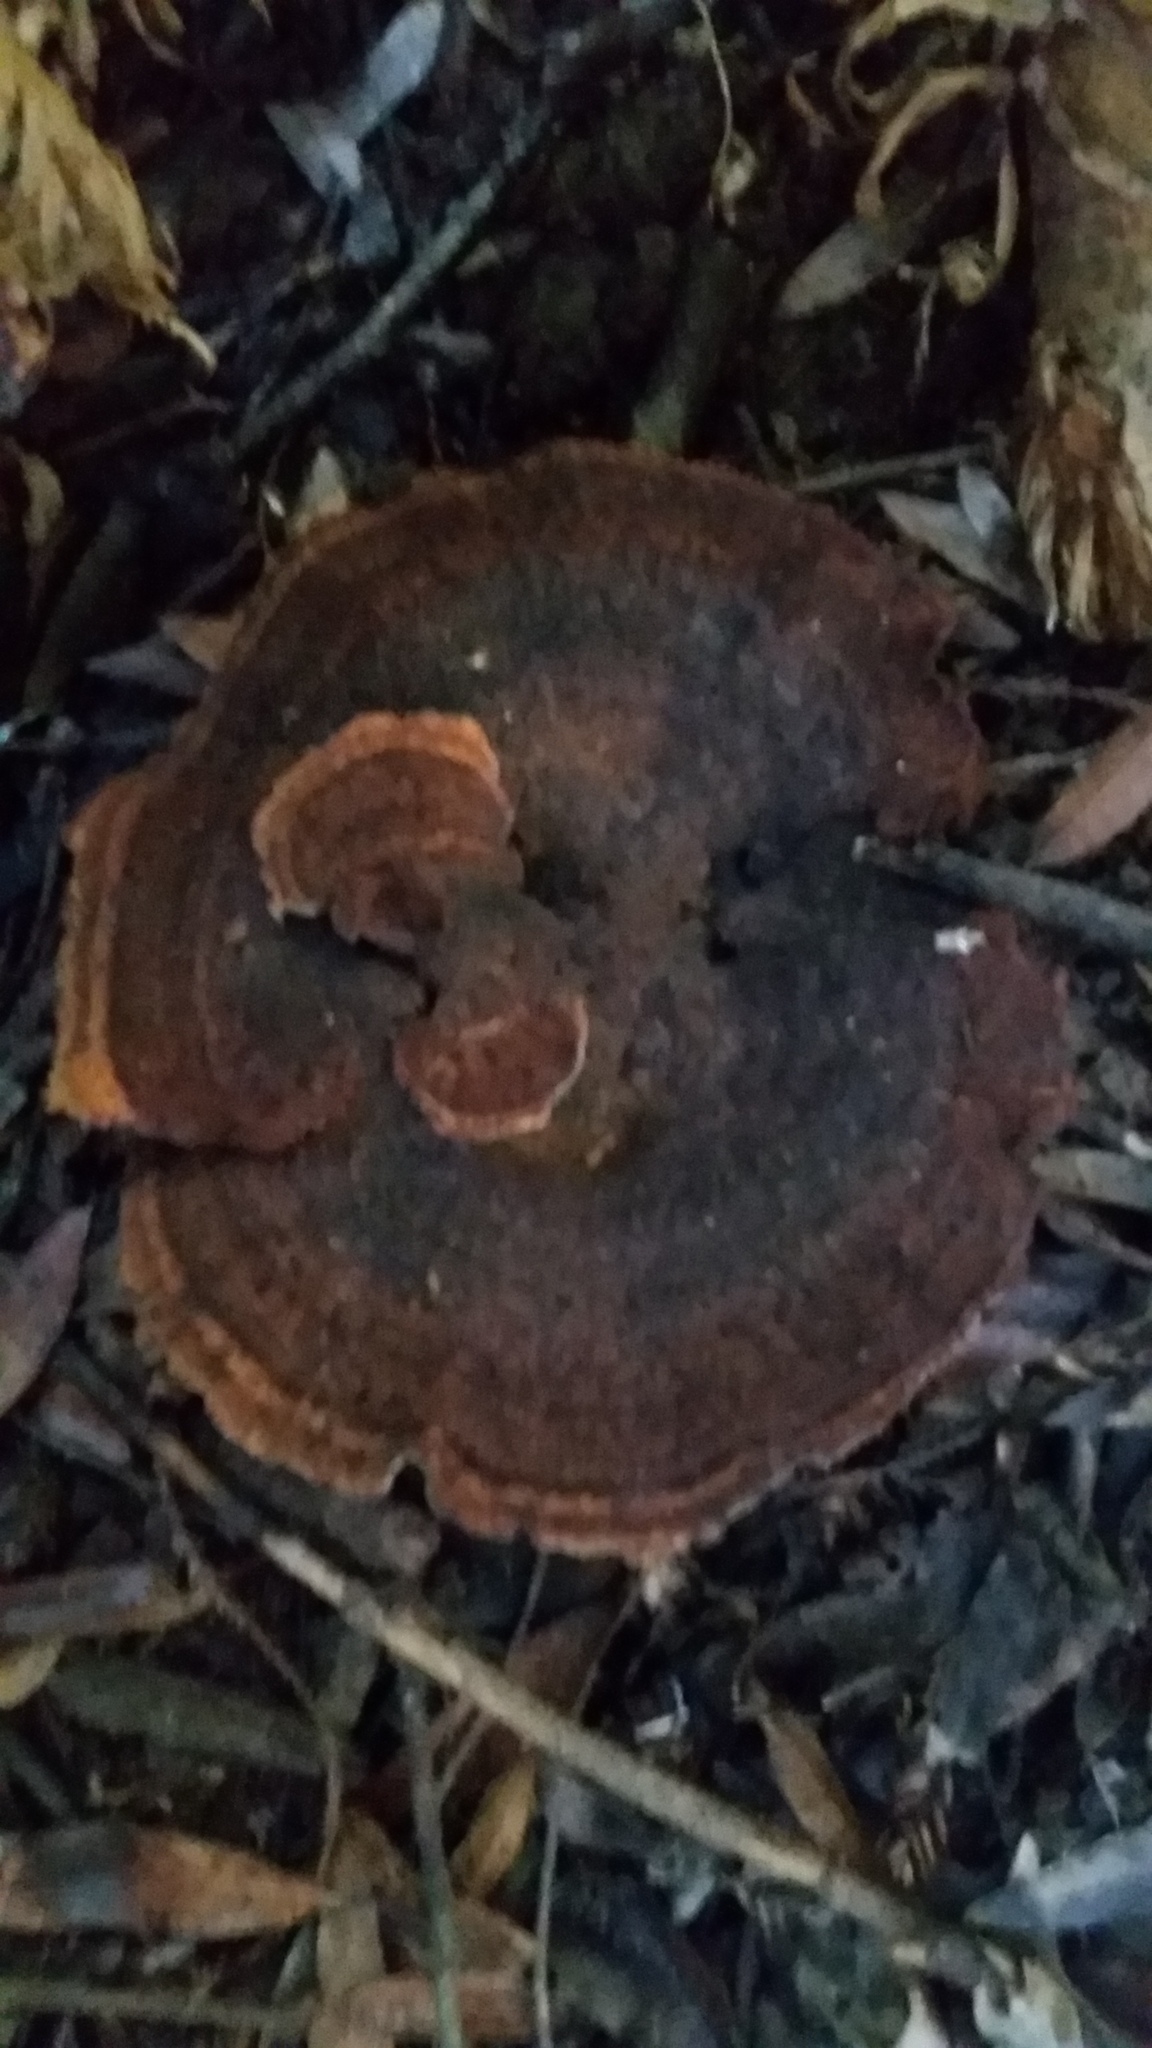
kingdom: Fungi
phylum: Basidiomycota
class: Agaricomycetes
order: Polyporales
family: Laetiporaceae
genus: Phaeolus
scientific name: Phaeolus schweinitzii
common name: Dyer's mazegill
